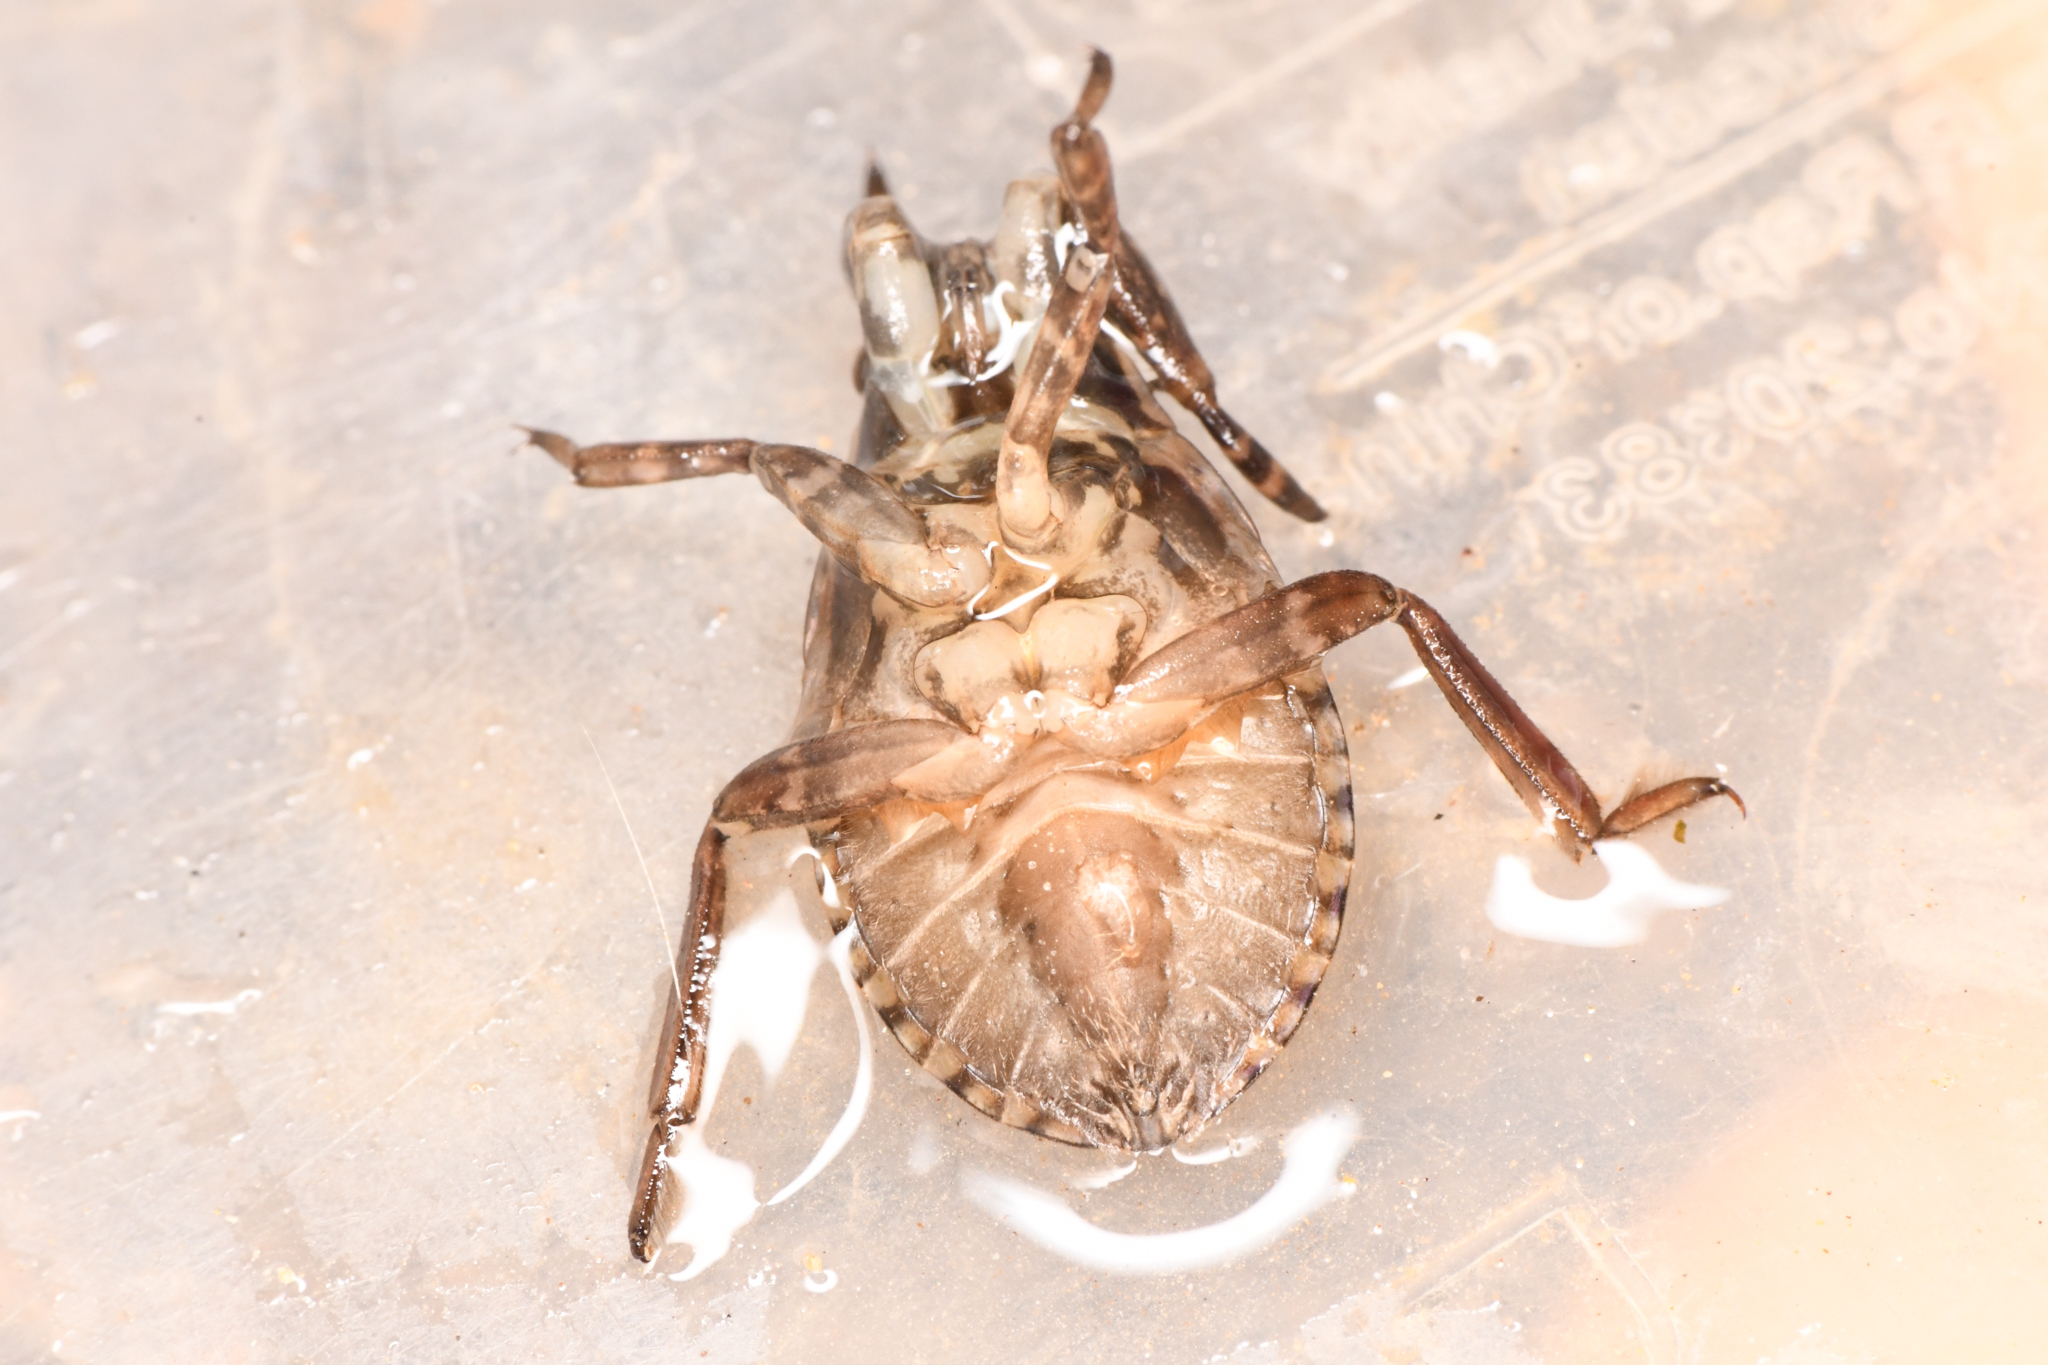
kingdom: Animalia
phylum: Arthropoda
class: Insecta
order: Hemiptera
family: Belostomatidae
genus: Abedus
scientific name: Abedus indentatus
